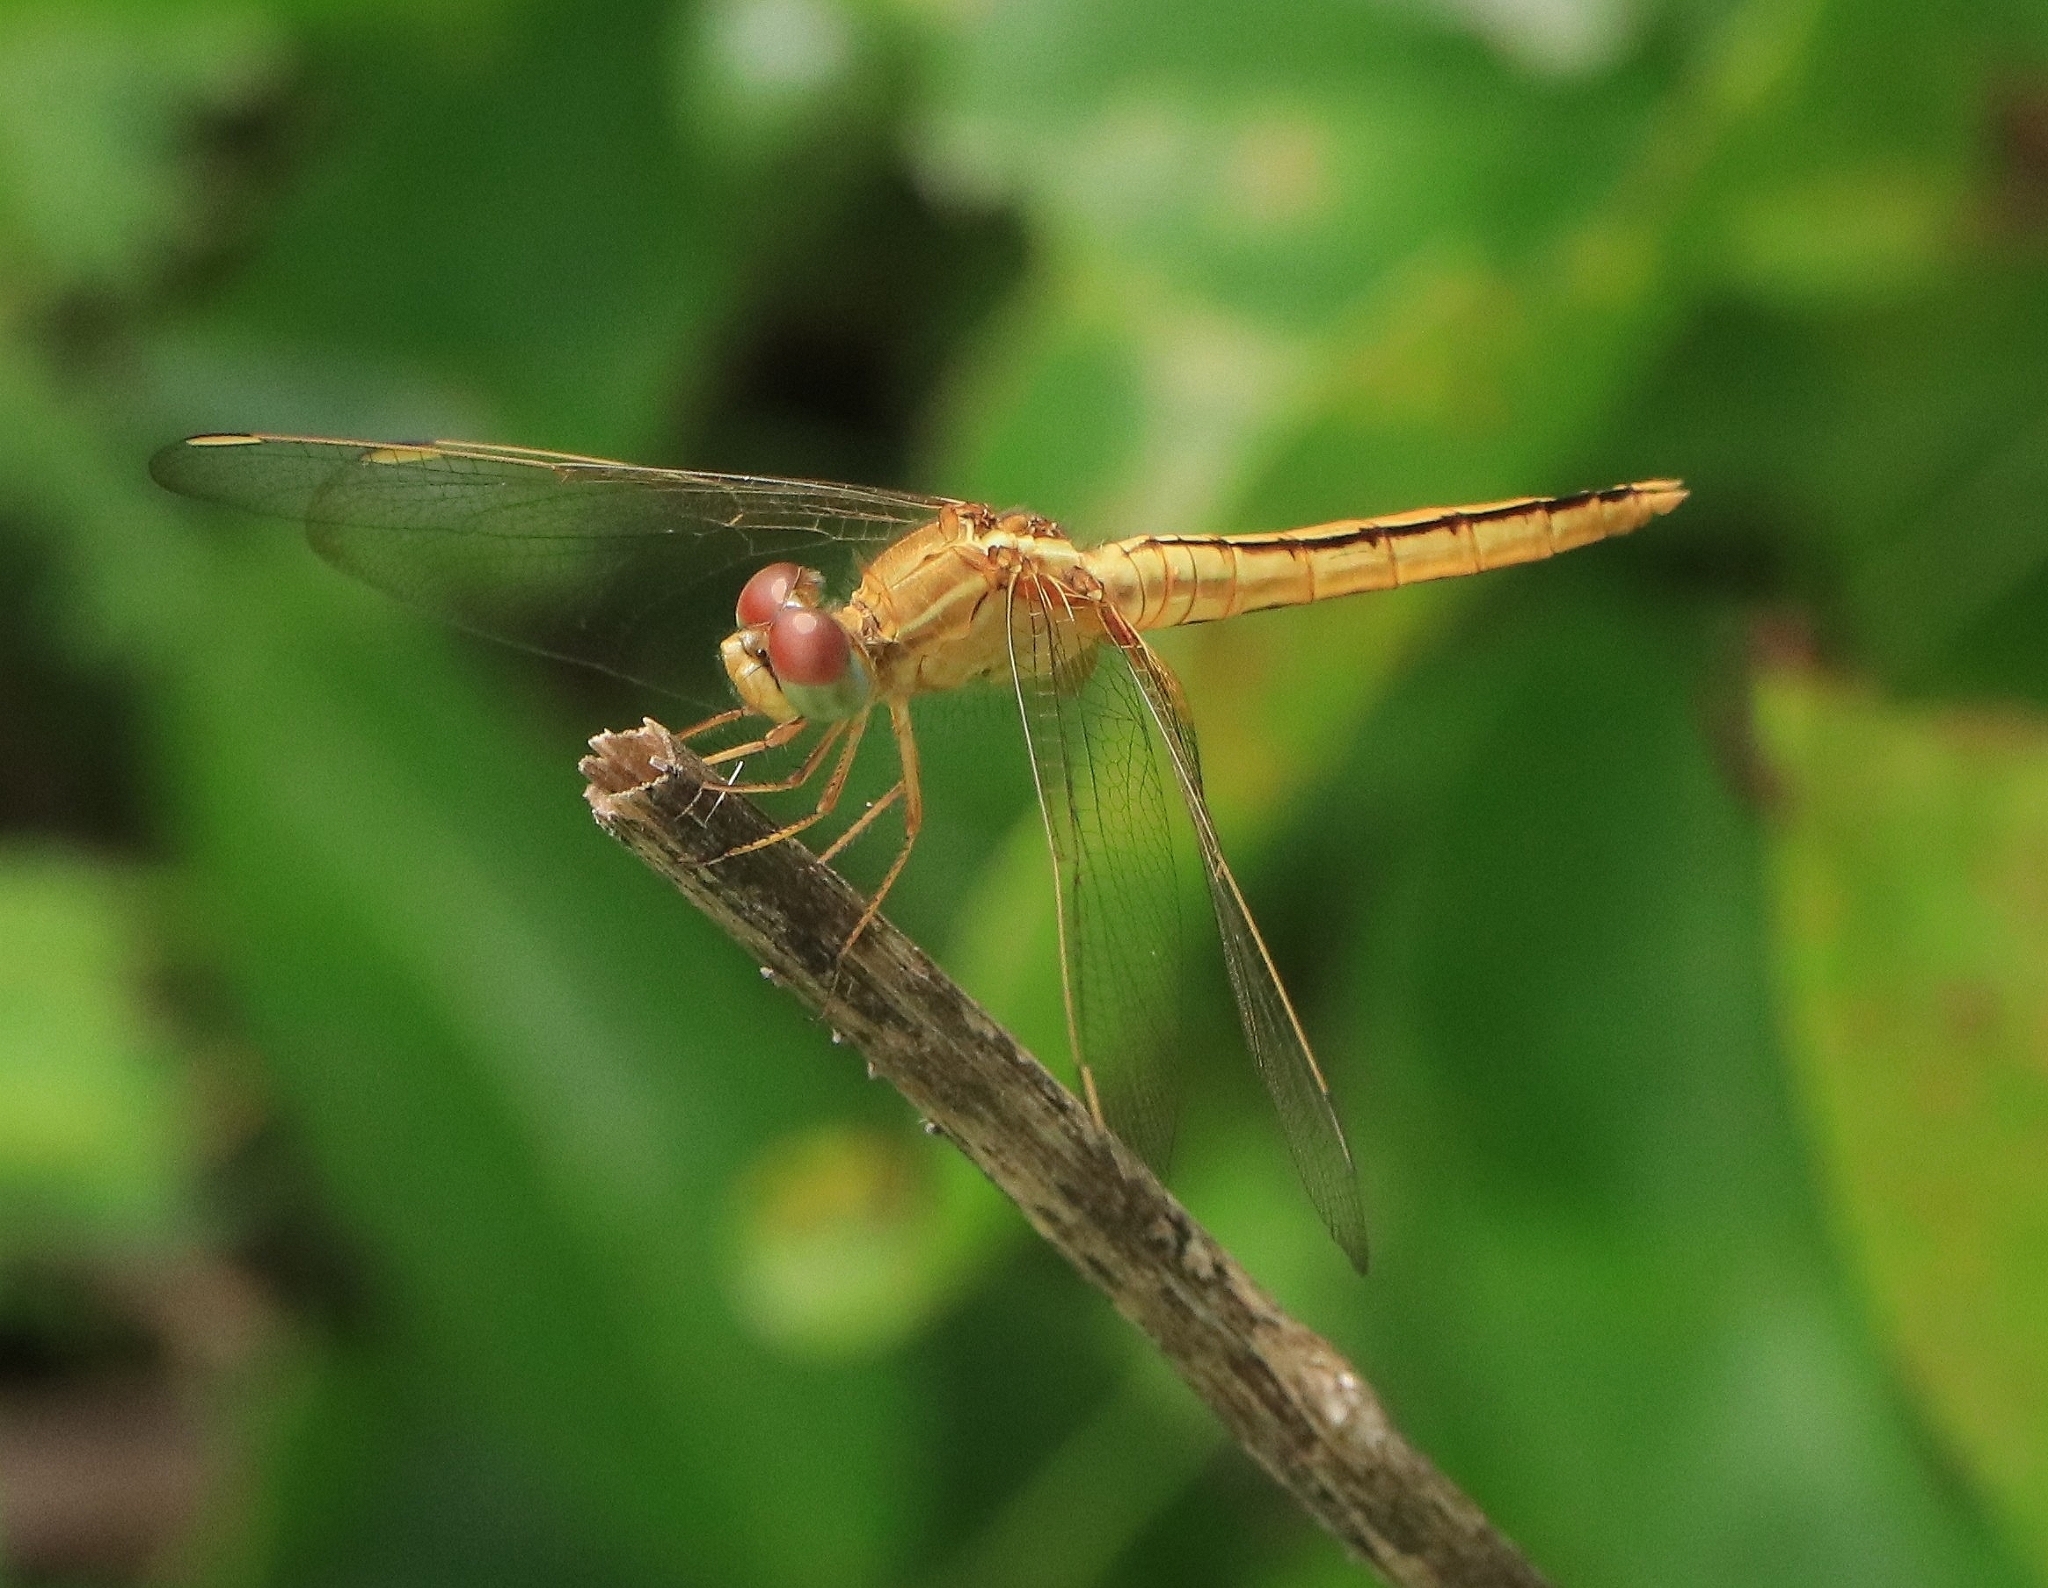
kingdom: Animalia
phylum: Arthropoda
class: Insecta
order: Odonata
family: Libellulidae
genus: Crocothemis
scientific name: Crocothemis servilia
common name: Scarlet skimmer
